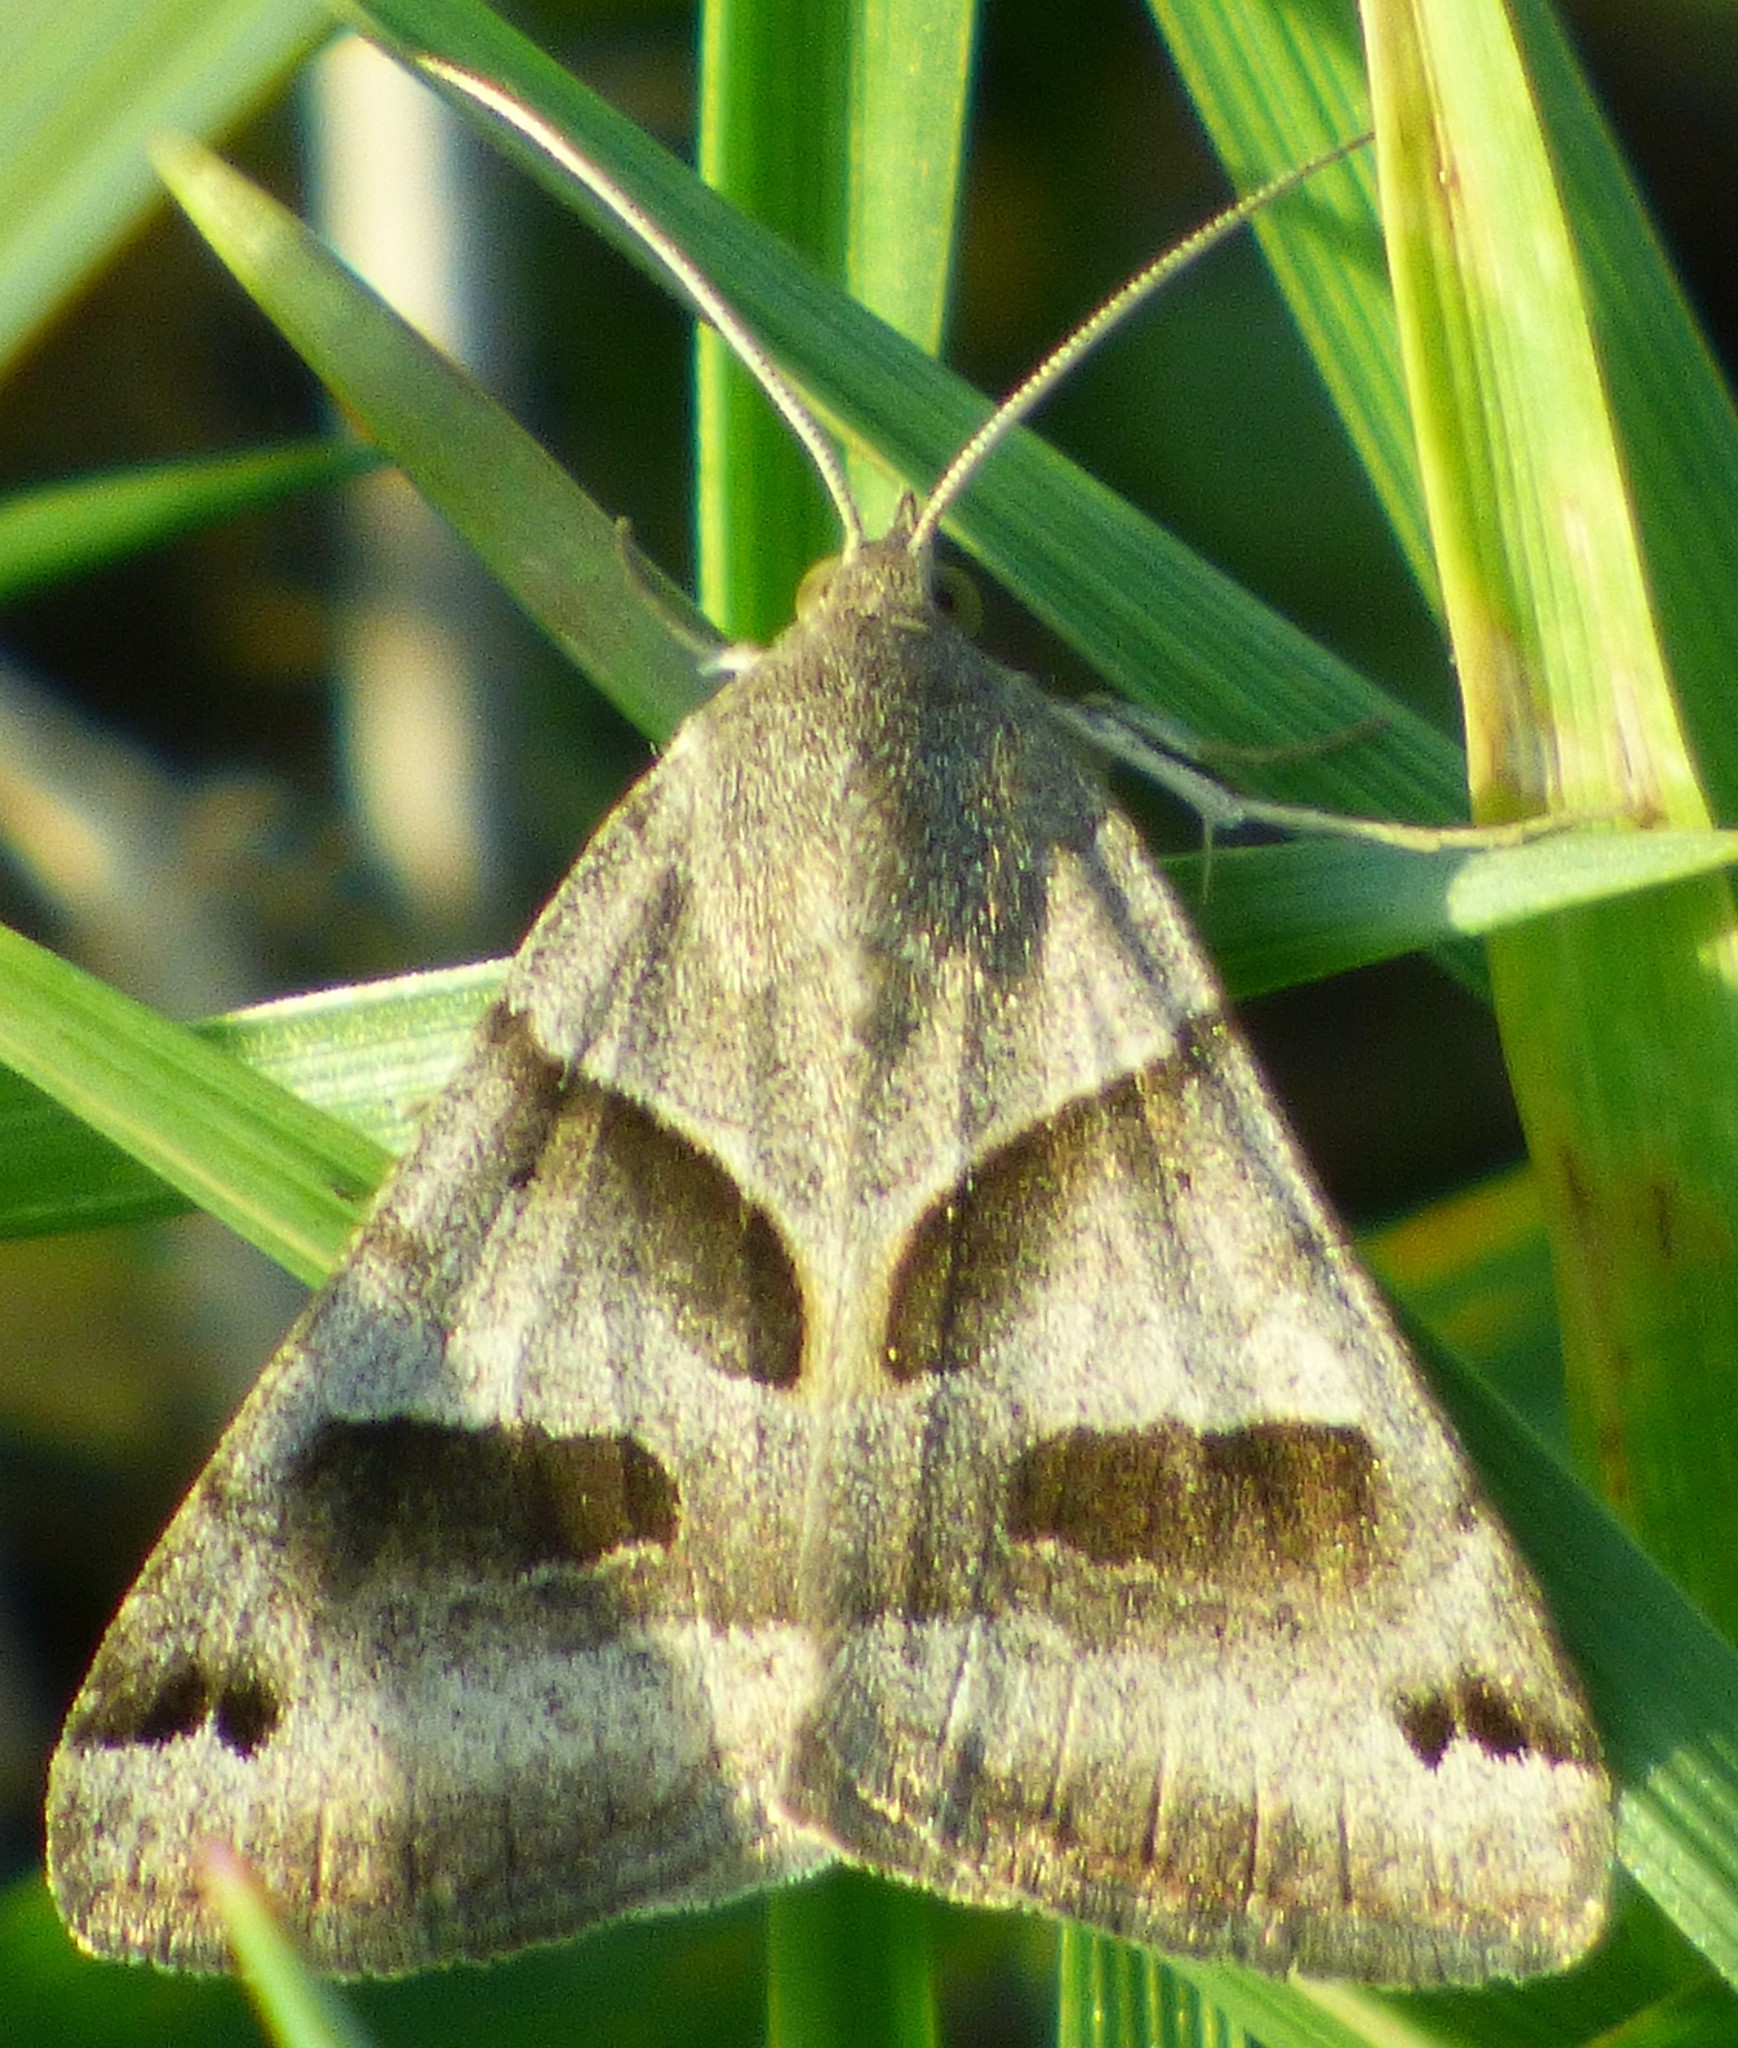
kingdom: Animalia
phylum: Arthropoda
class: Insecta
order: Lepidoptera
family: Erebidae
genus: Caenurgina
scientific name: Caenurgina erechtea
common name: Forage looper moth
